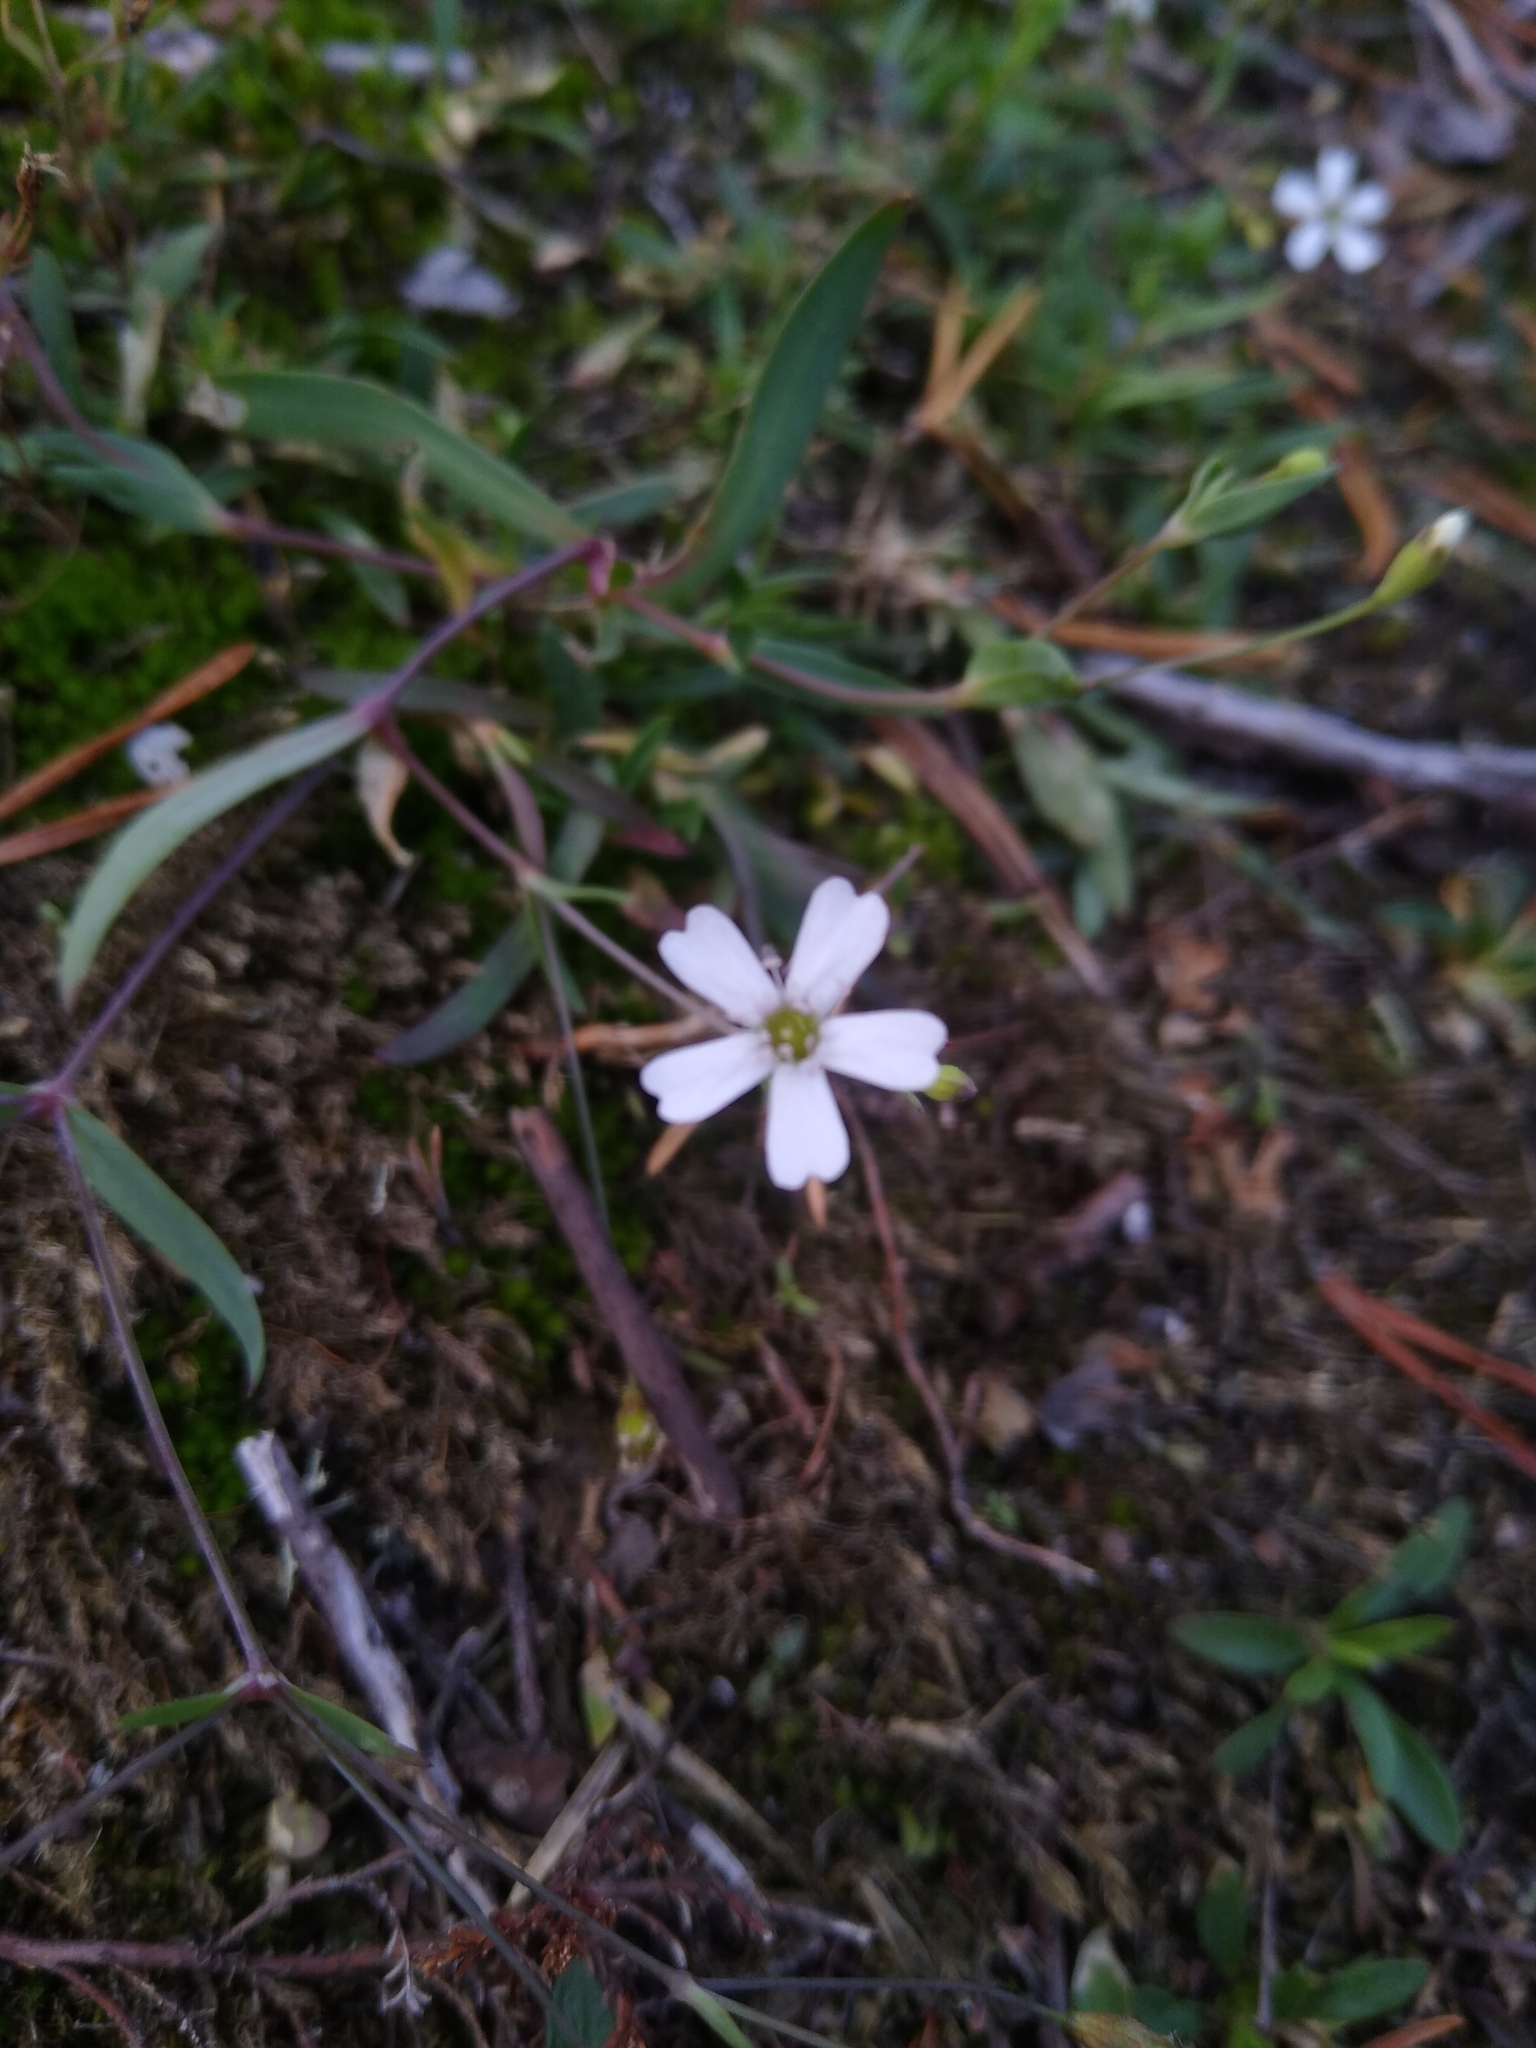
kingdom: Plantae
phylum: Tracheophyta
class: Magnoliopsida
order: Caryophyllales
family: Caryophyllaceae
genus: Atocion
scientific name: Atocion rupestre
